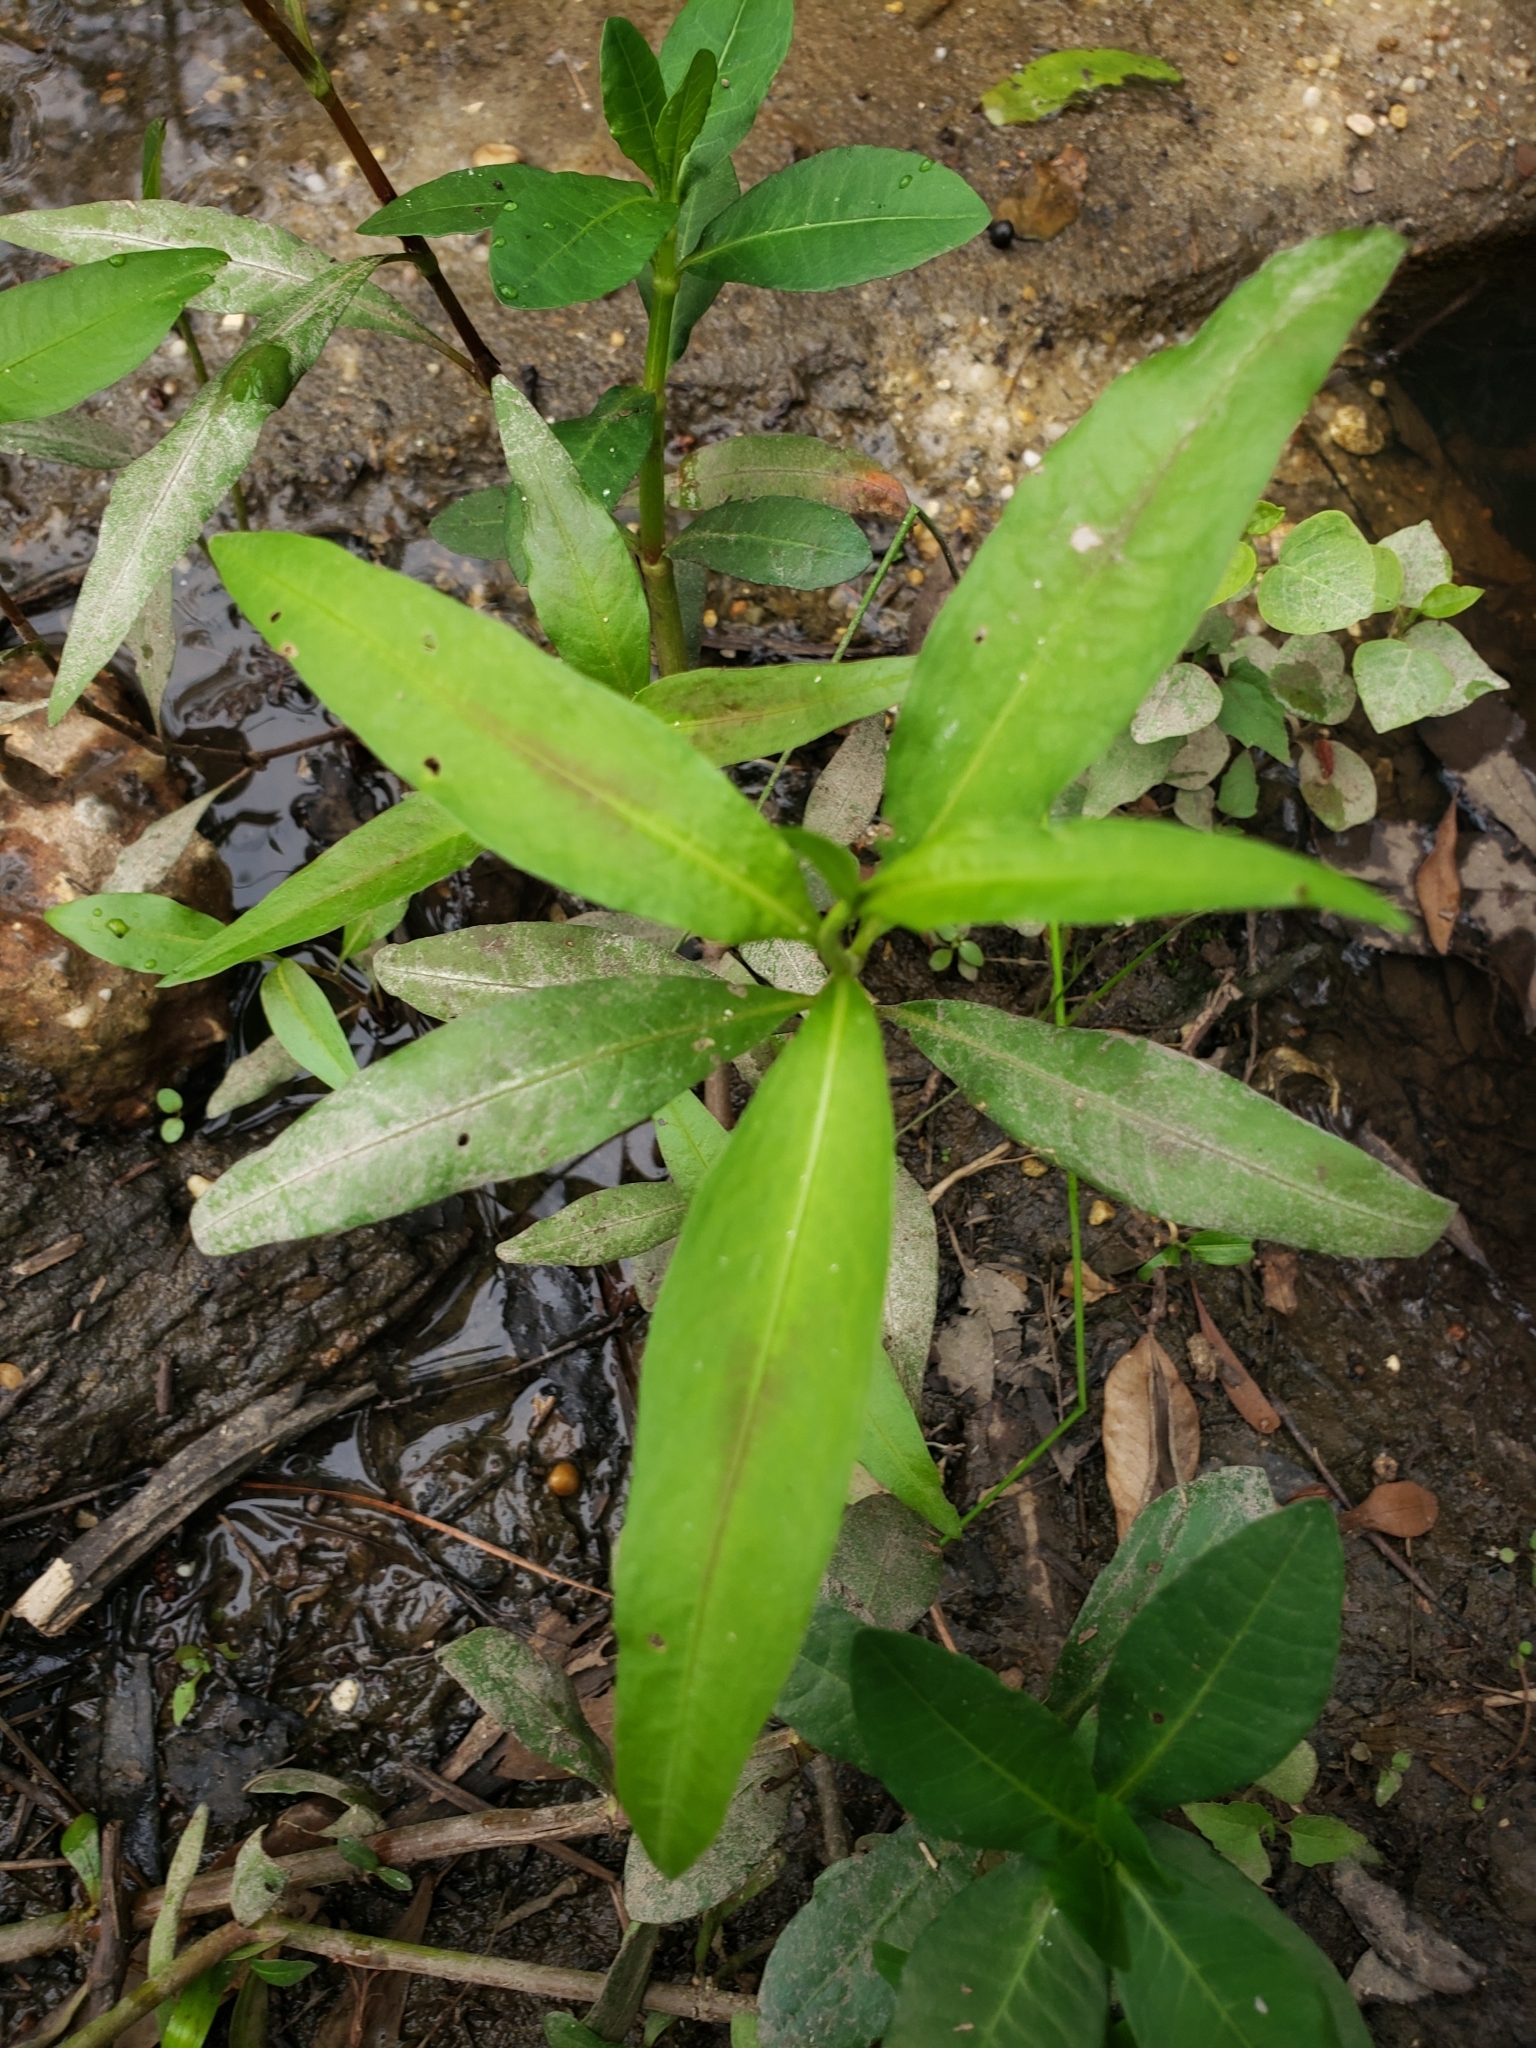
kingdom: Plantae
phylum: Tracheophyta
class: Magnoliopsida
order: Caryophyllales
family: Polygonaceae
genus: Persicaria
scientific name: Persicaria maculosa
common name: Redshank
